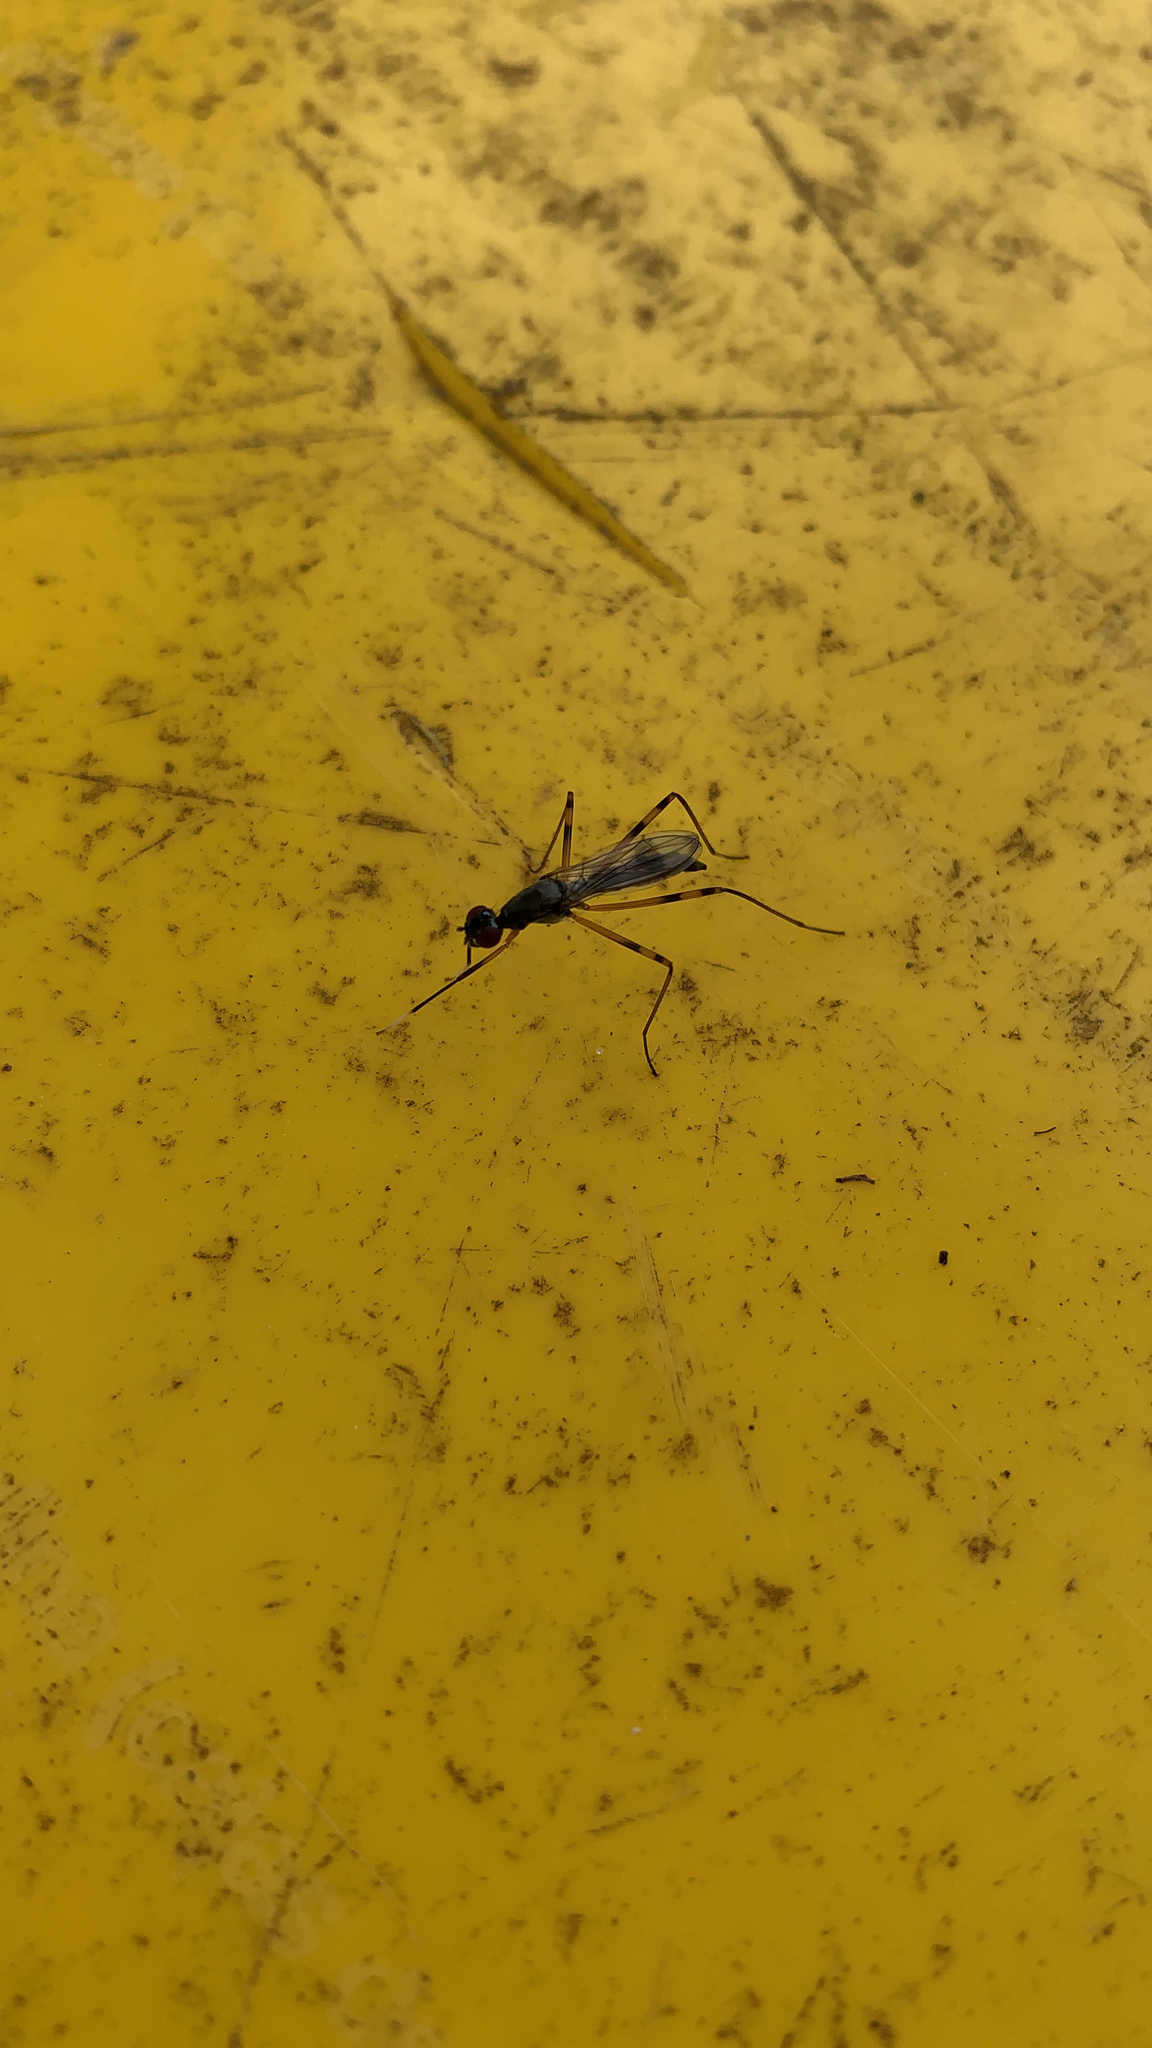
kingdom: Animalia
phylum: Arthropoda
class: Insecta
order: Diptera
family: Micropezidae
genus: Rainieria
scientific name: Rainieria antennaepes
